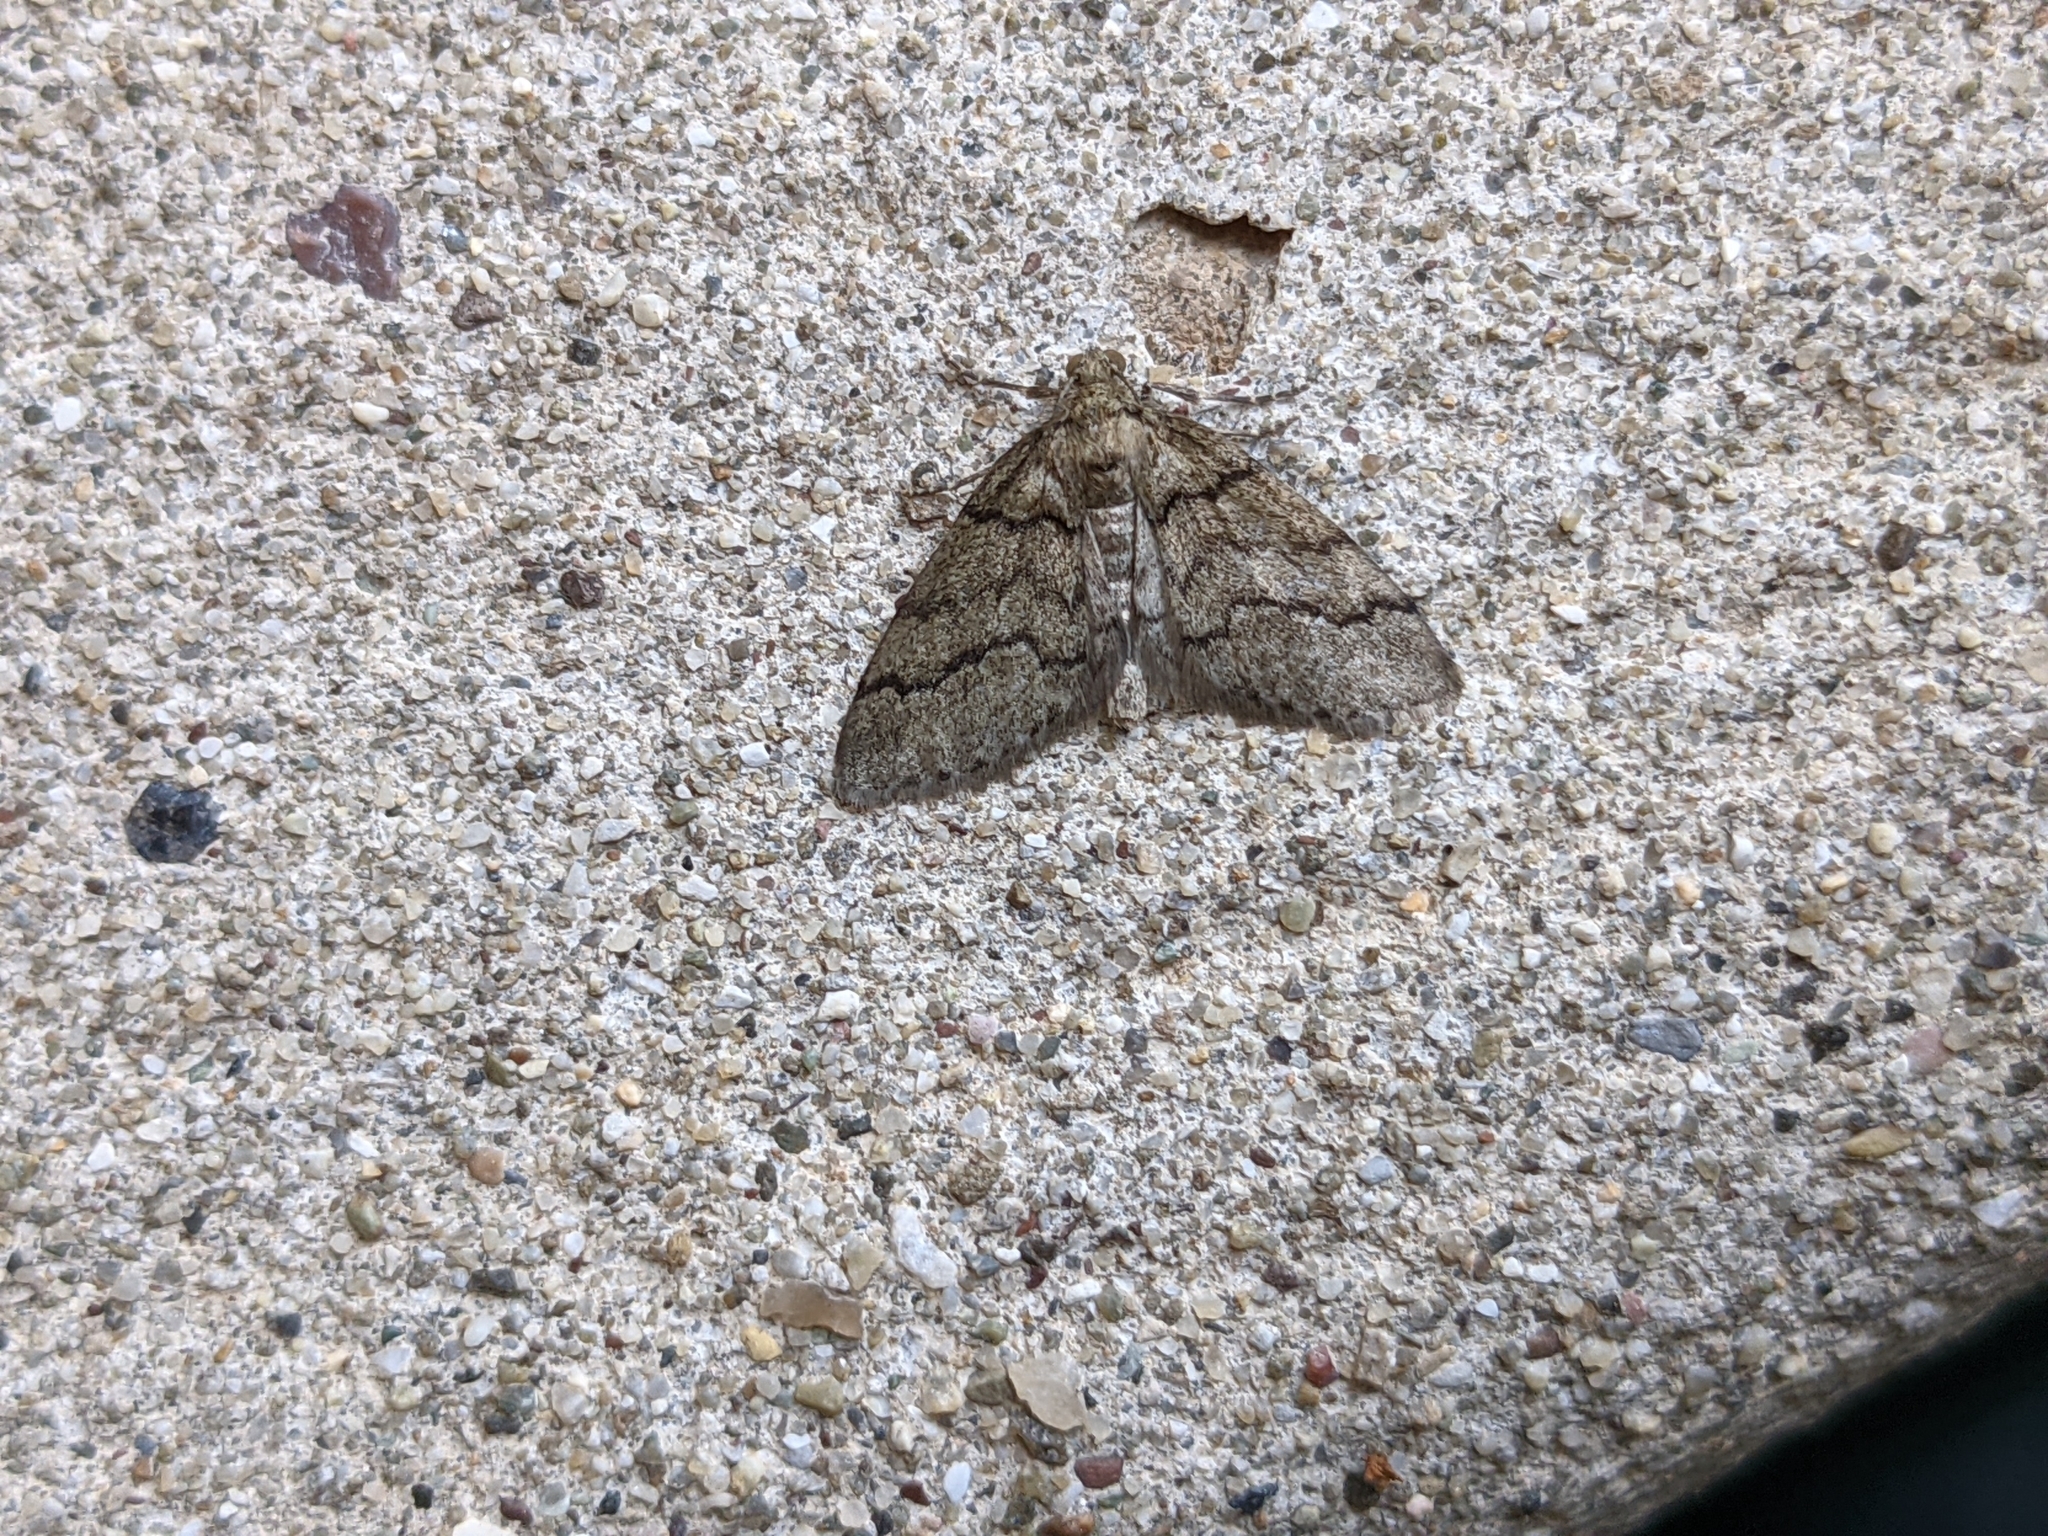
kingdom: Animalia
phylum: Arthropoda
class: Insecta
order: Lepidoptera
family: Geometridae
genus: Tephronia
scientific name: Tephronia theophilaria
